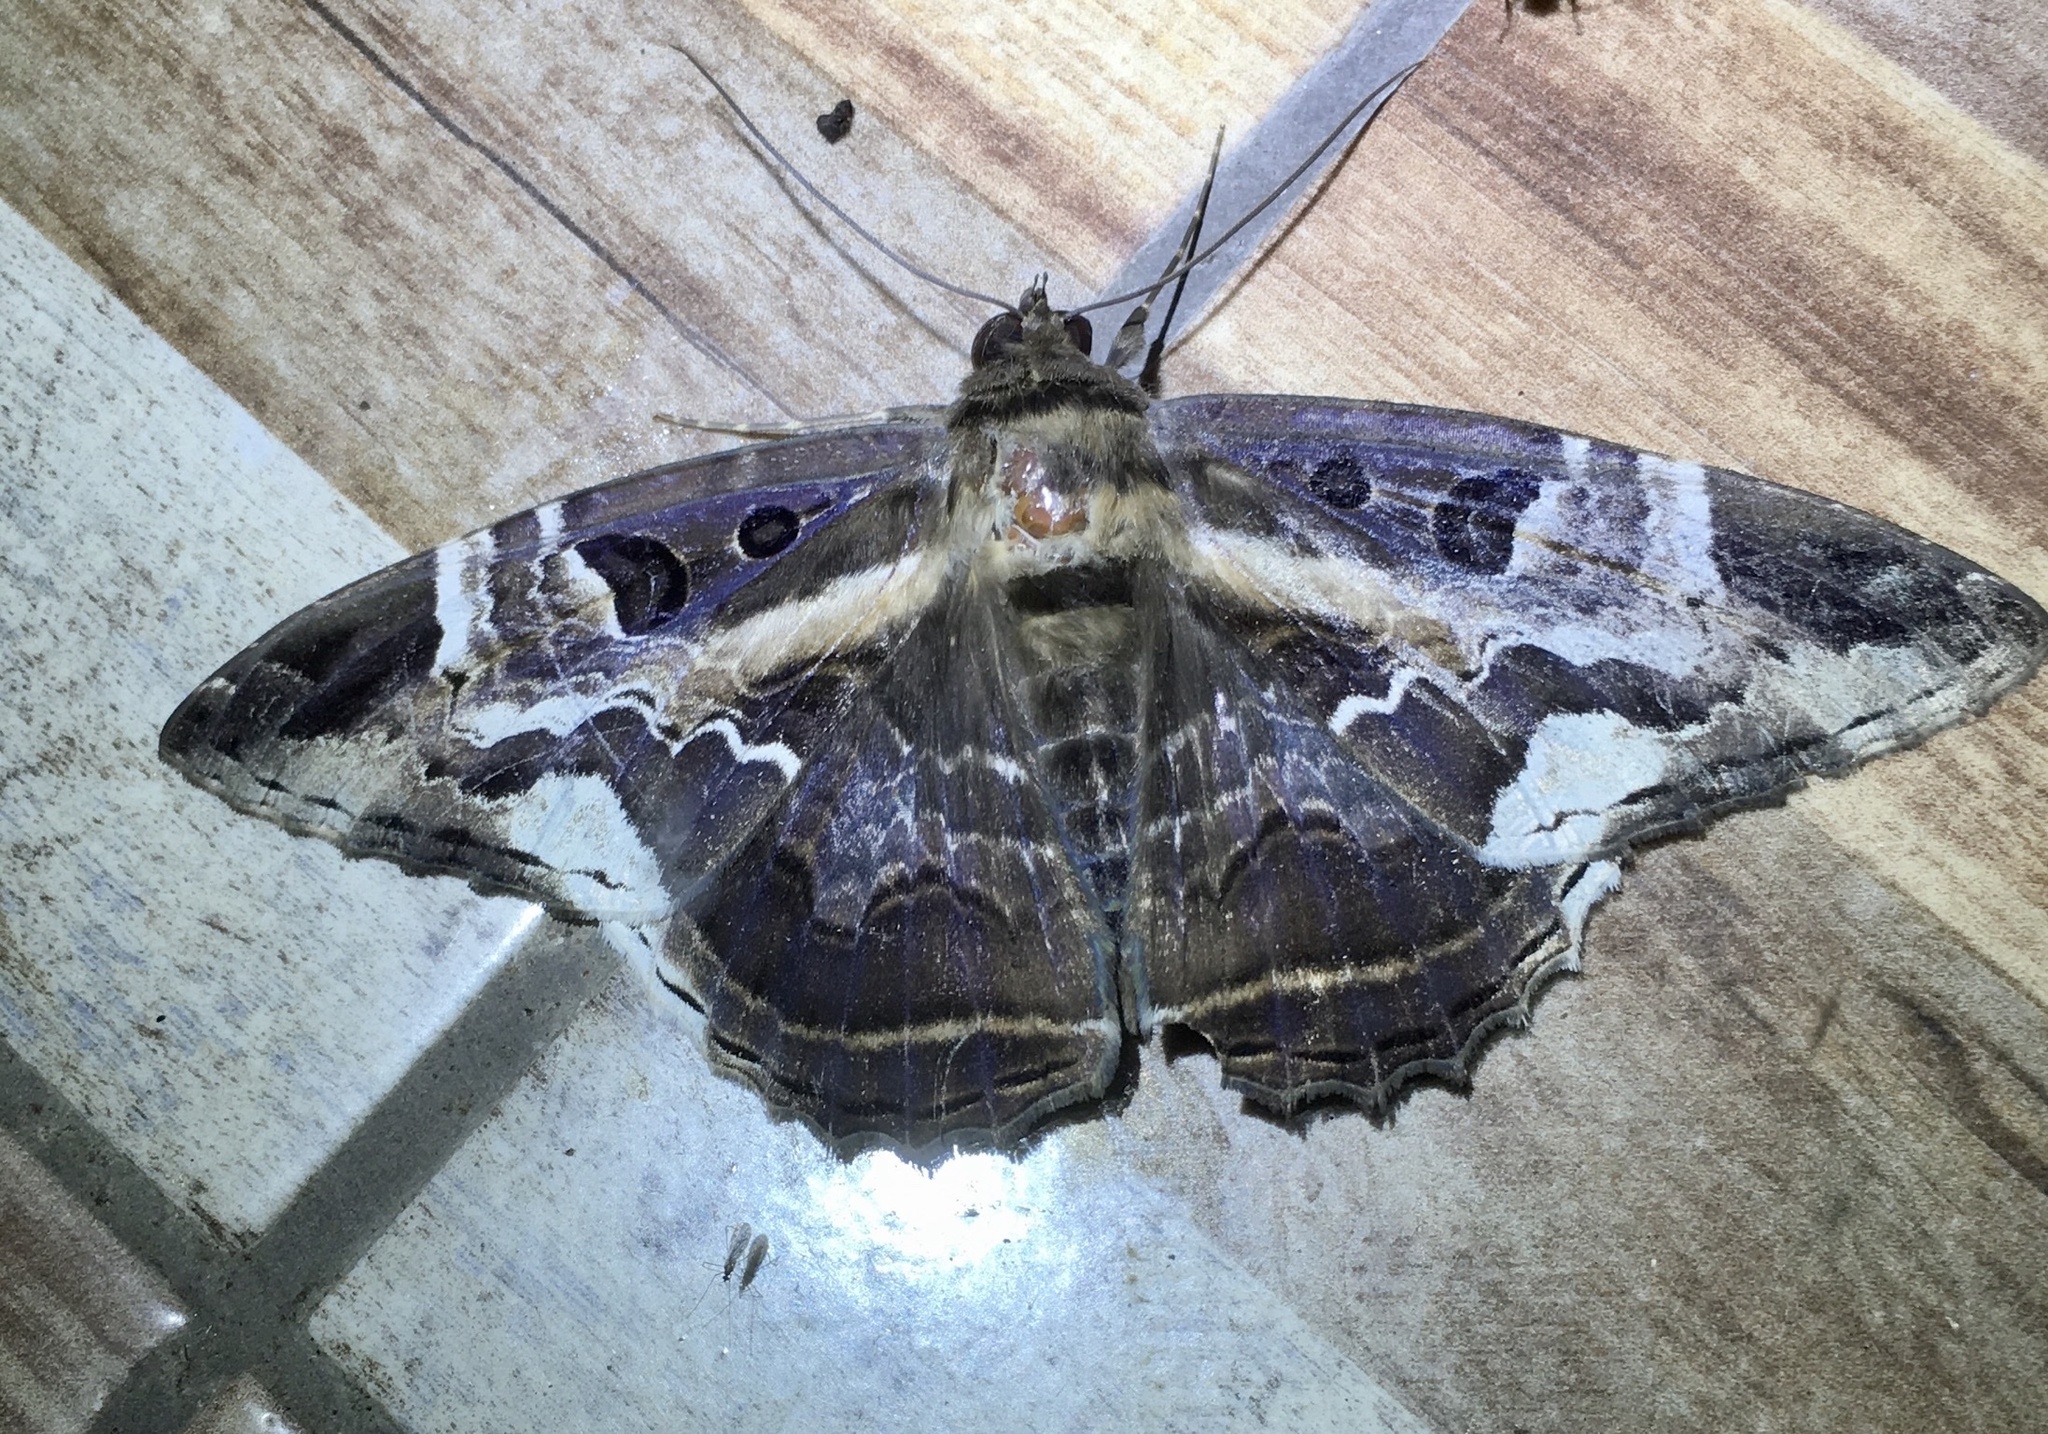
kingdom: Animalia
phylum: Arthropoda
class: Insecta
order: Lepidoptera
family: Erebidae
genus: Feigeria
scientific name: Feigeria herilia
